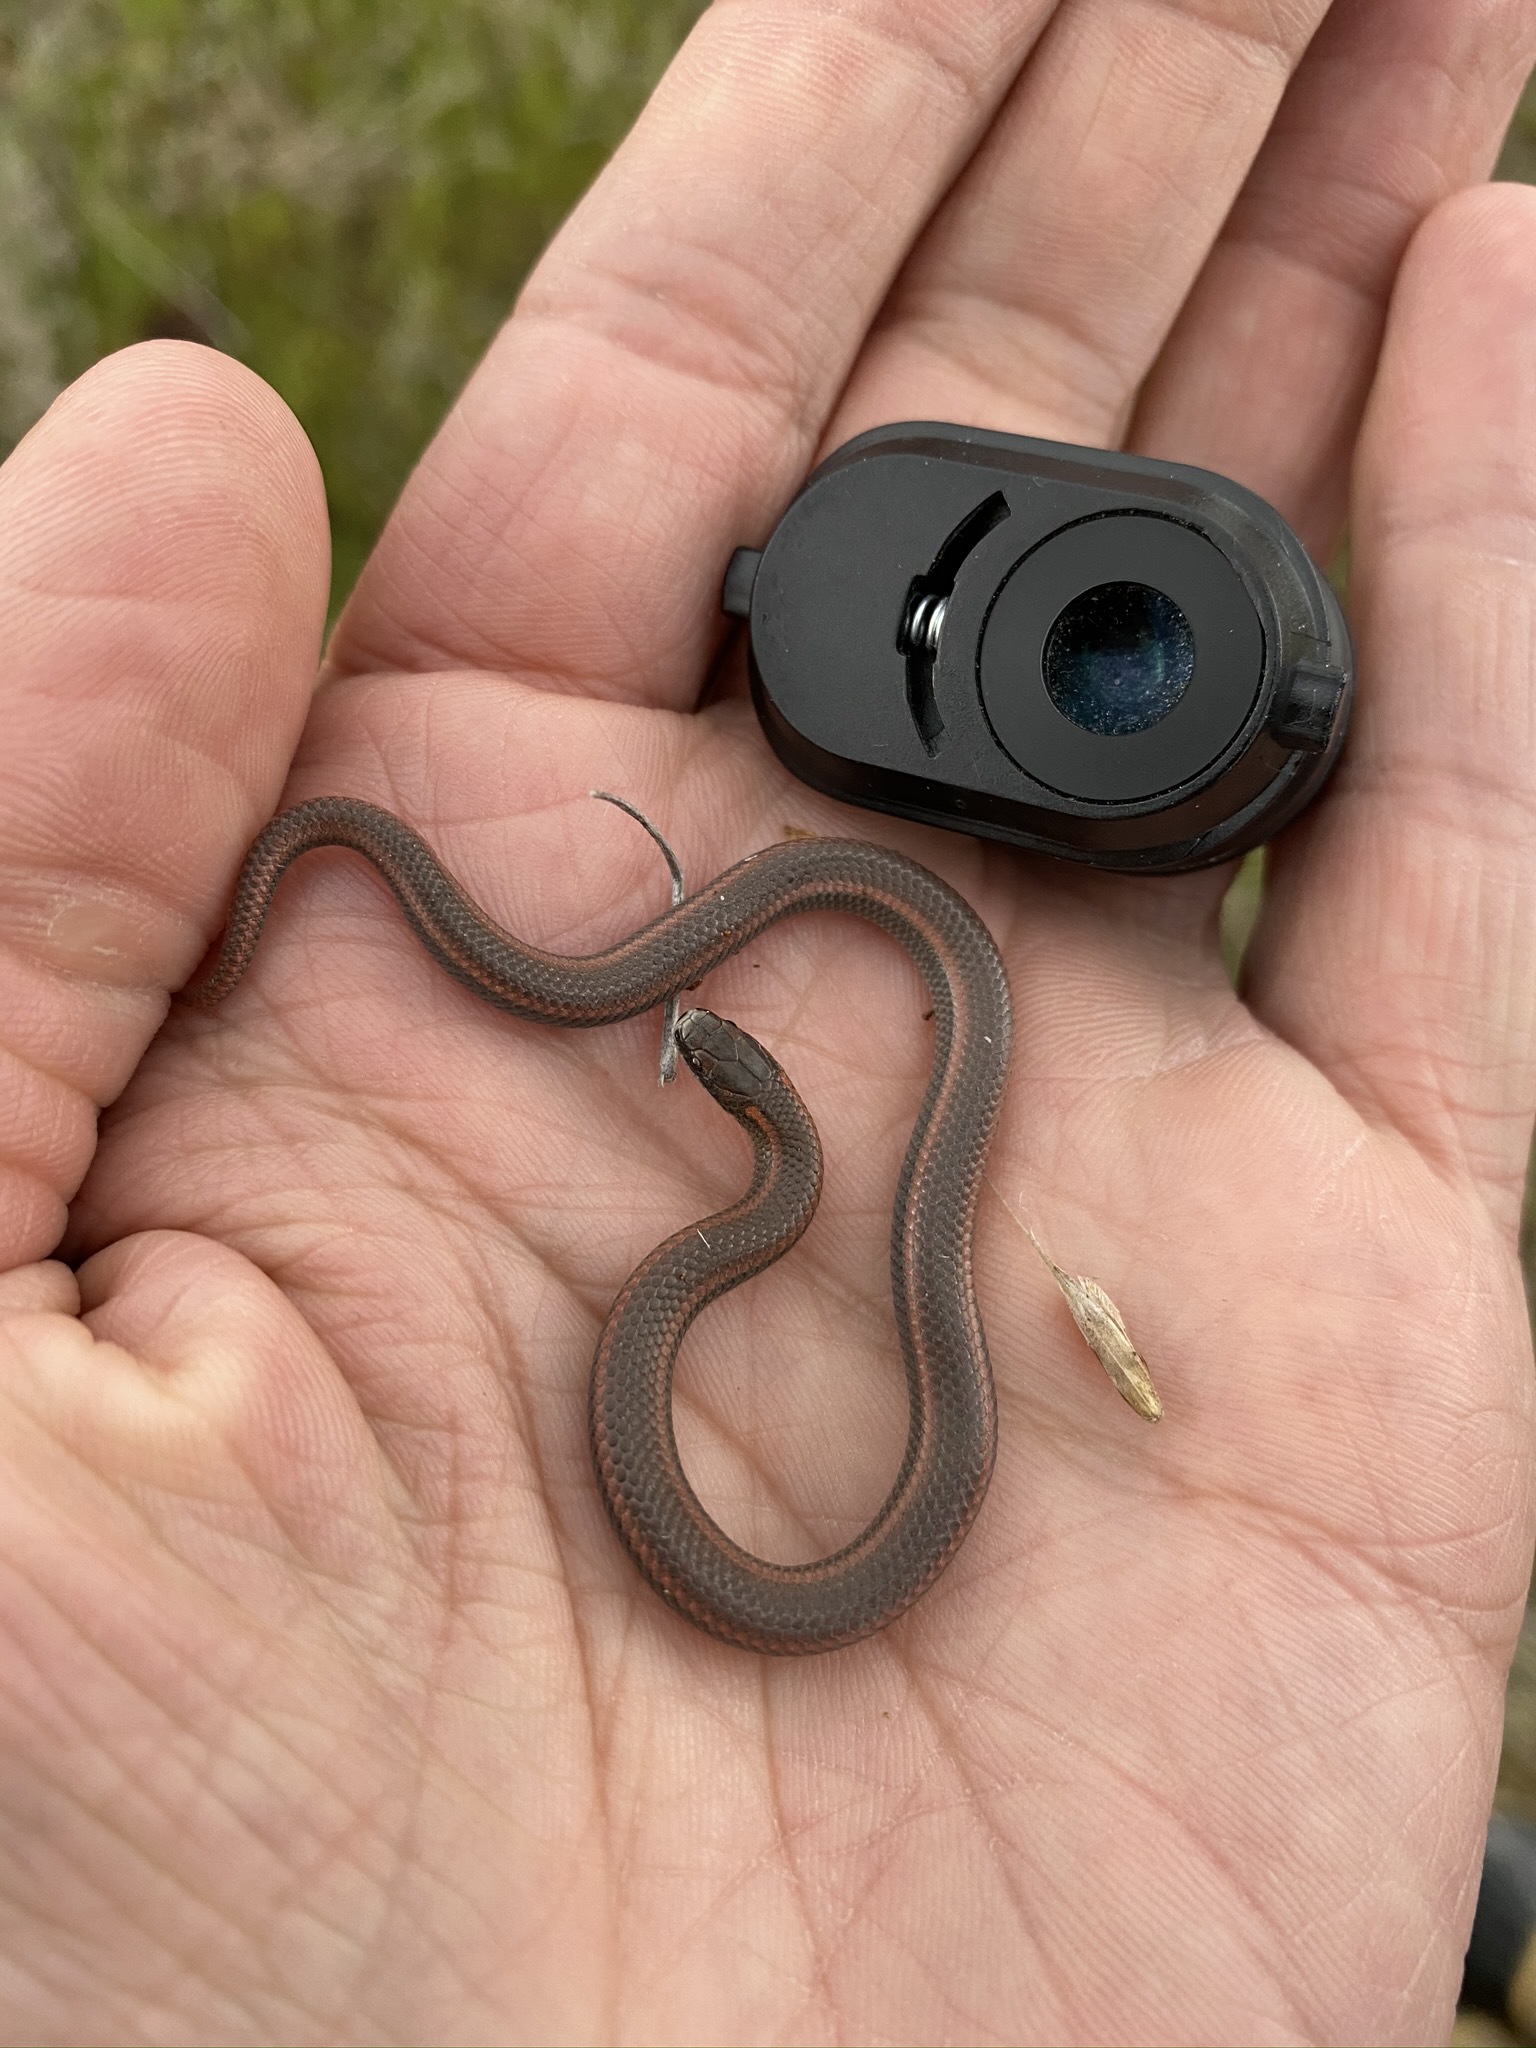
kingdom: Animalia
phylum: Chordata
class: Squamata
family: Colubridae
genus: Contia
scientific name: Contia tenuis
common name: Sharptail snake
